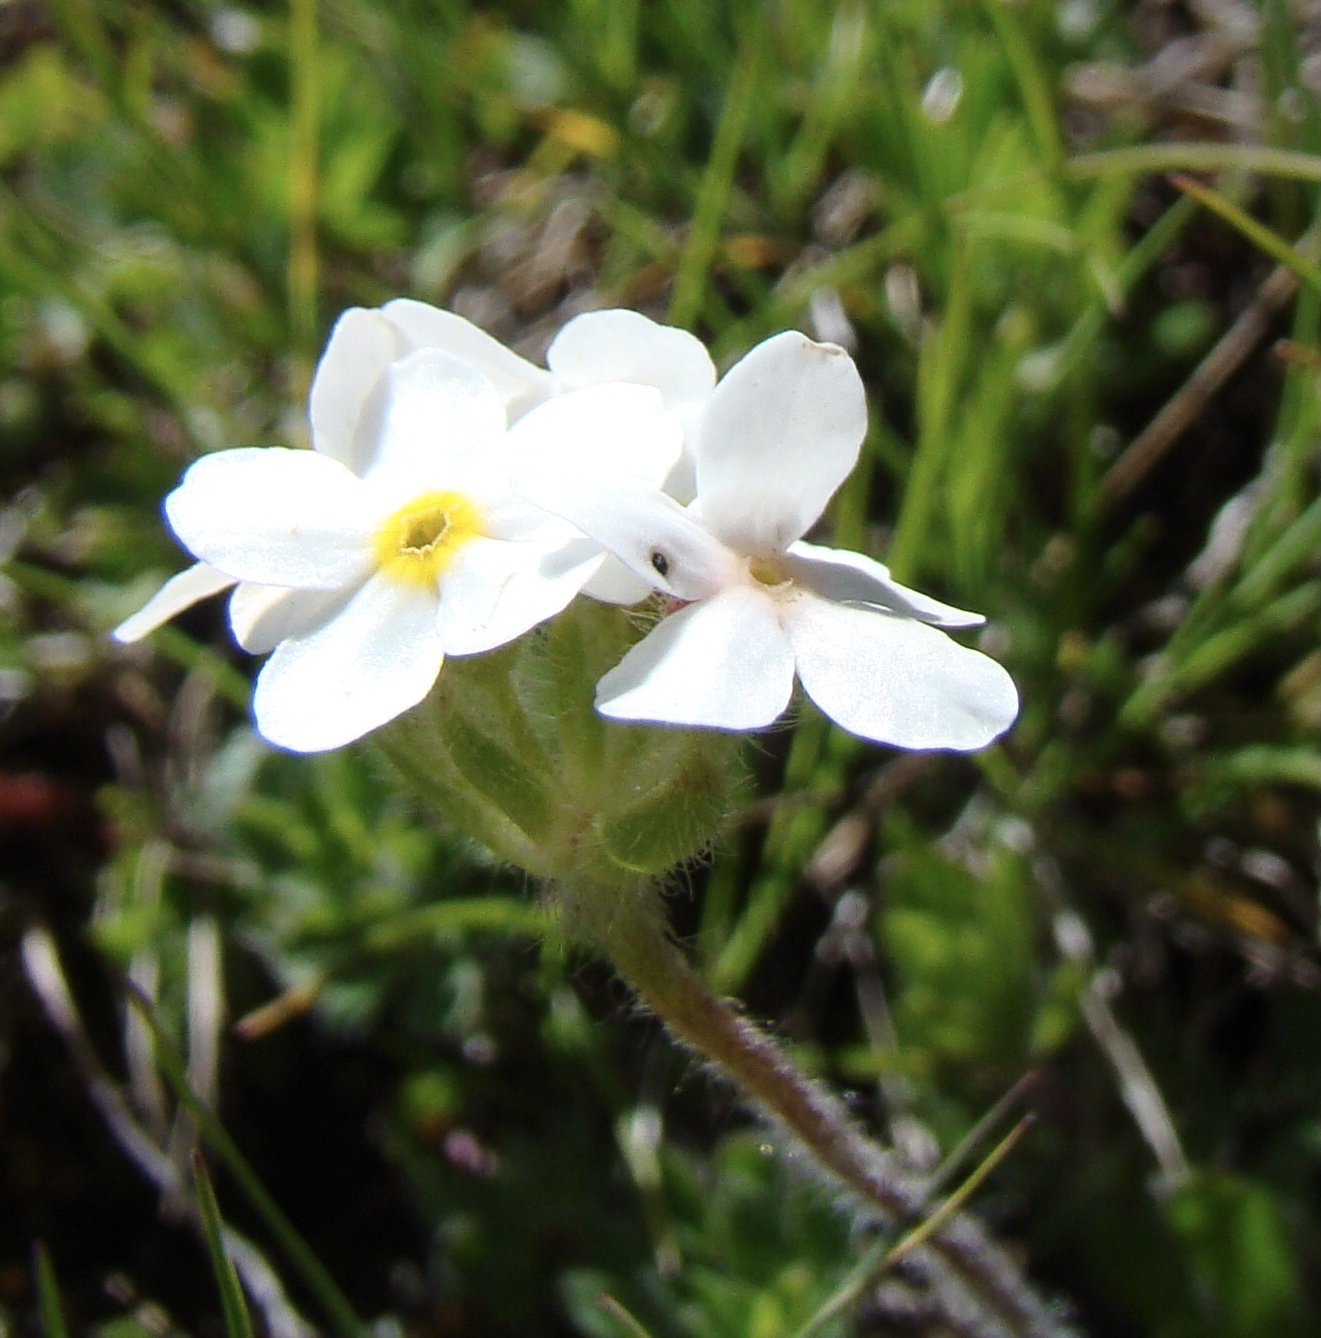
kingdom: Plantae
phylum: Tracheophyta
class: Magnoliopsida
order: Ericales
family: Primulaceae
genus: Androsace
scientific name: Androsace chamaejasme
